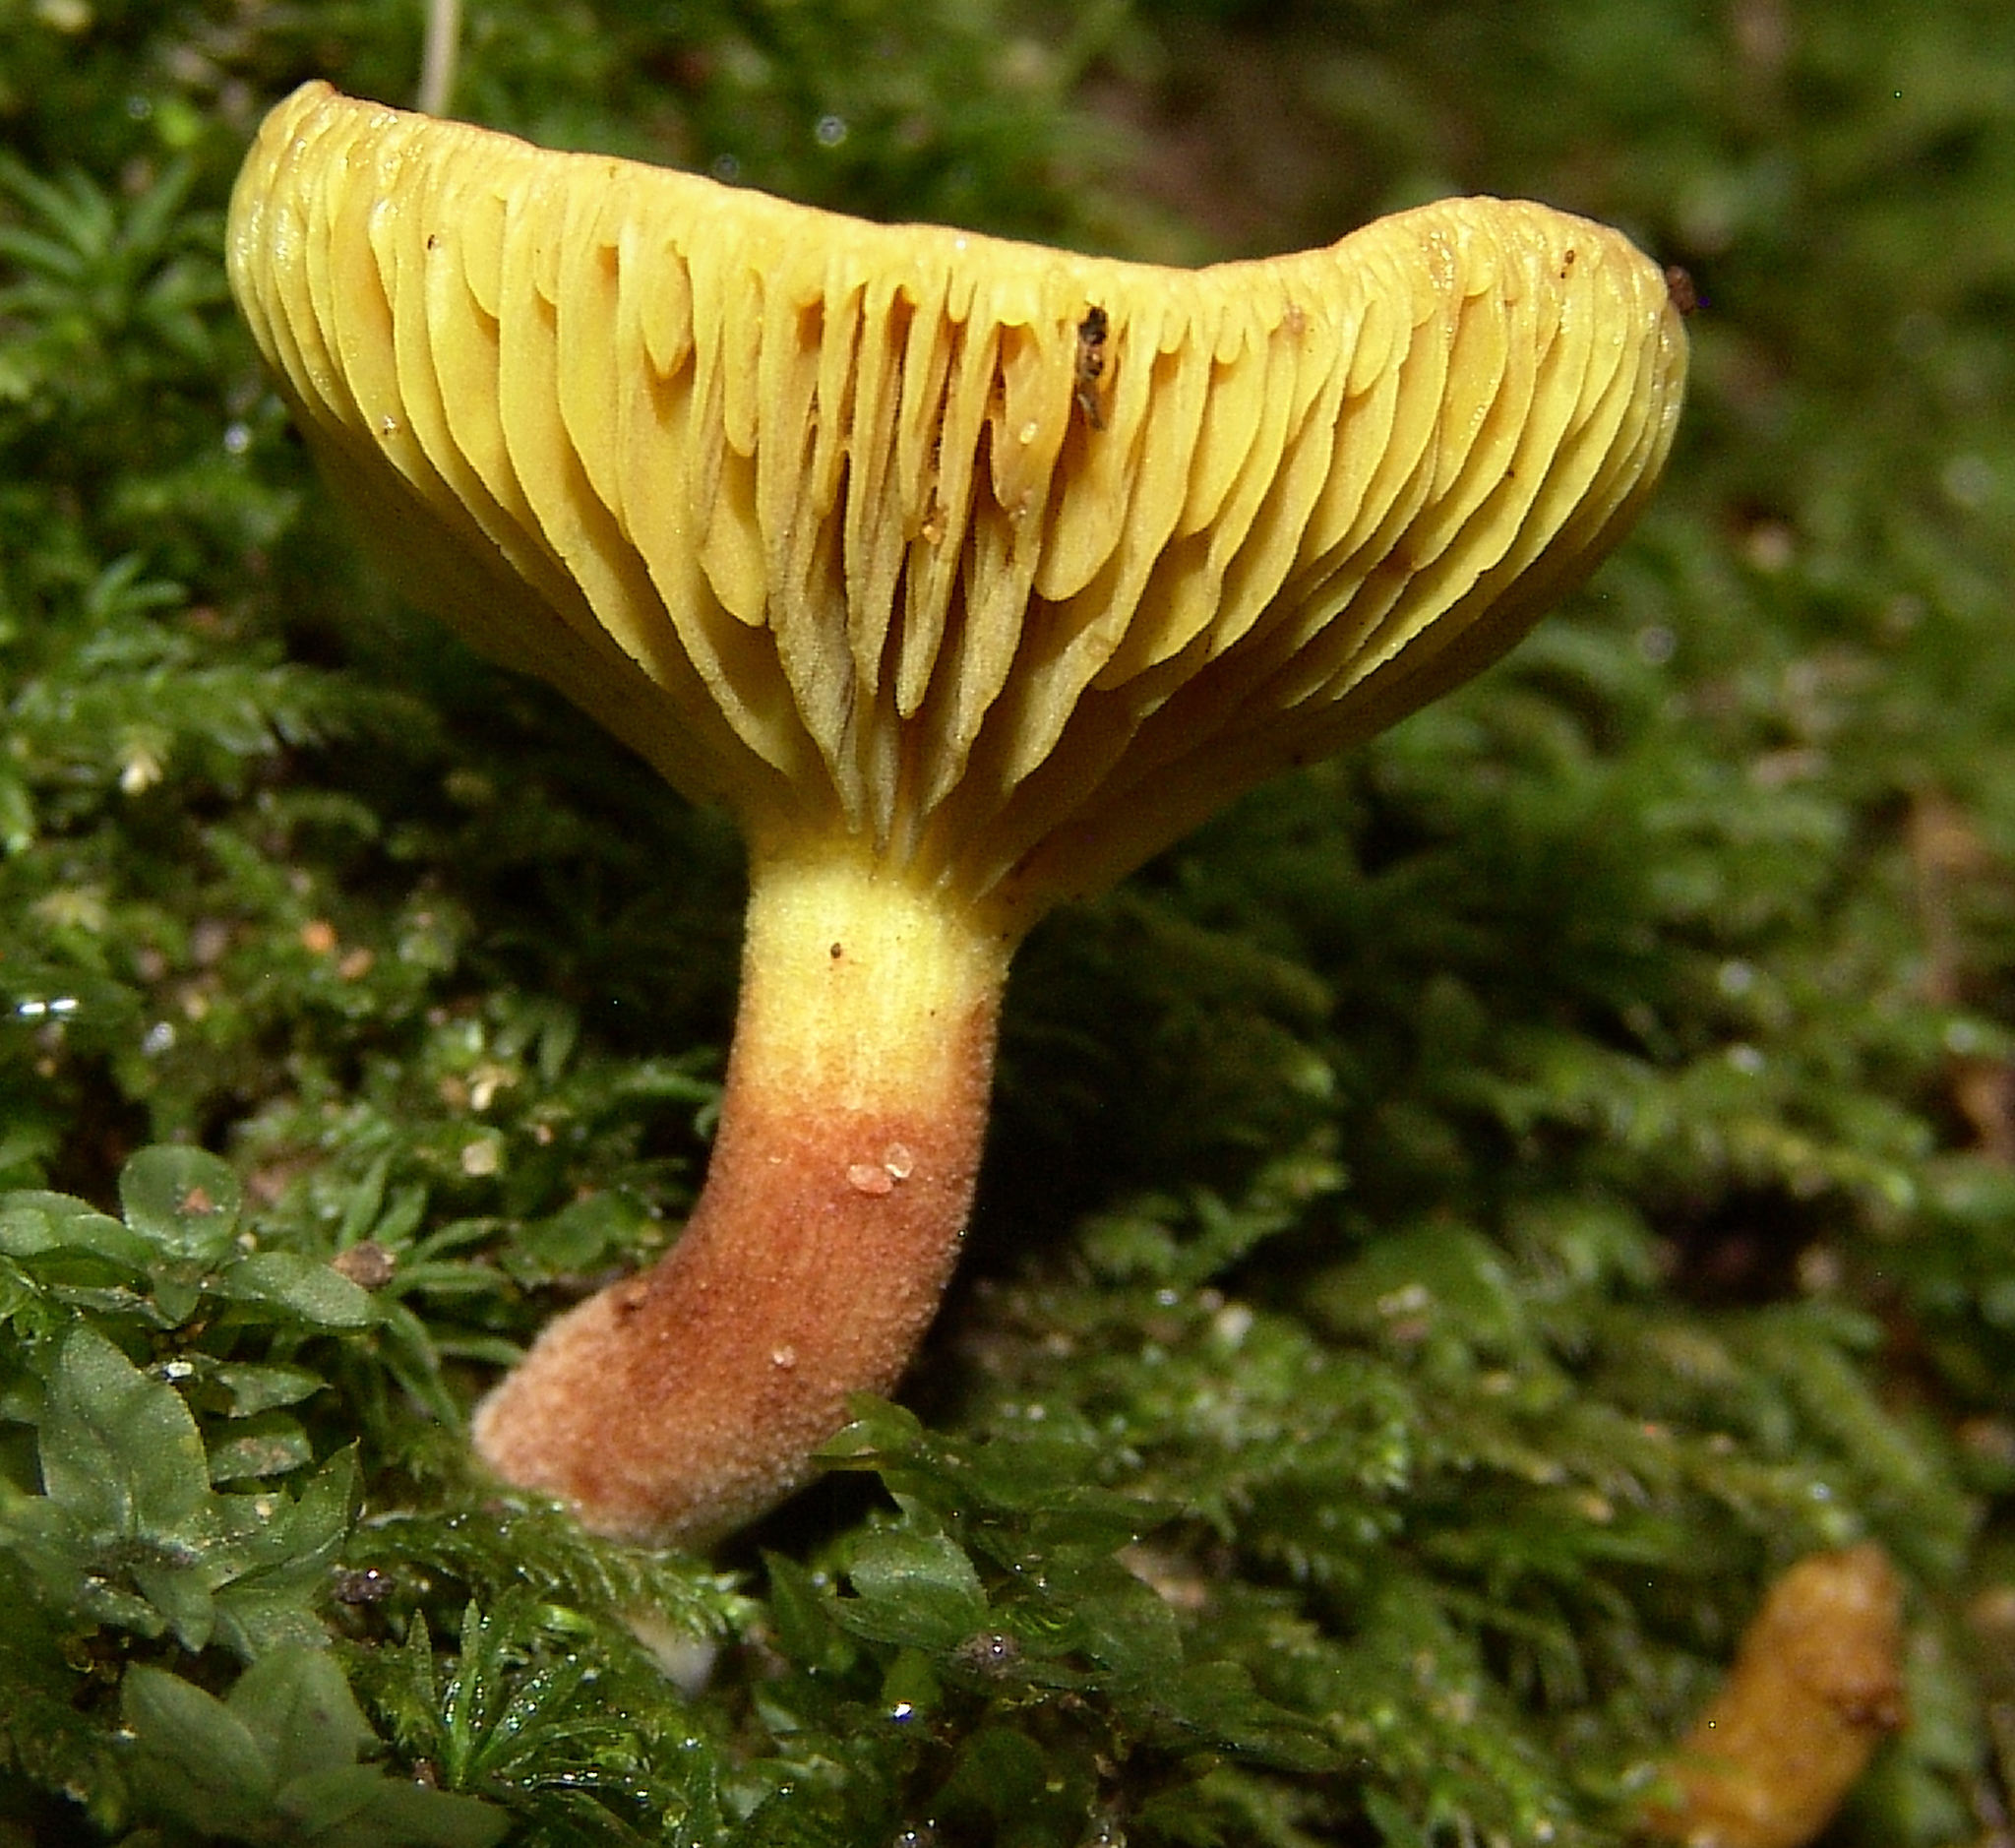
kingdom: Fungi
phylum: Basidiomycota
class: Agaricomycetes
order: Boletales
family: Boletaceae
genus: Phylloporus
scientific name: Phylloporus rhodoxanthus
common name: Golden gilled bolete
